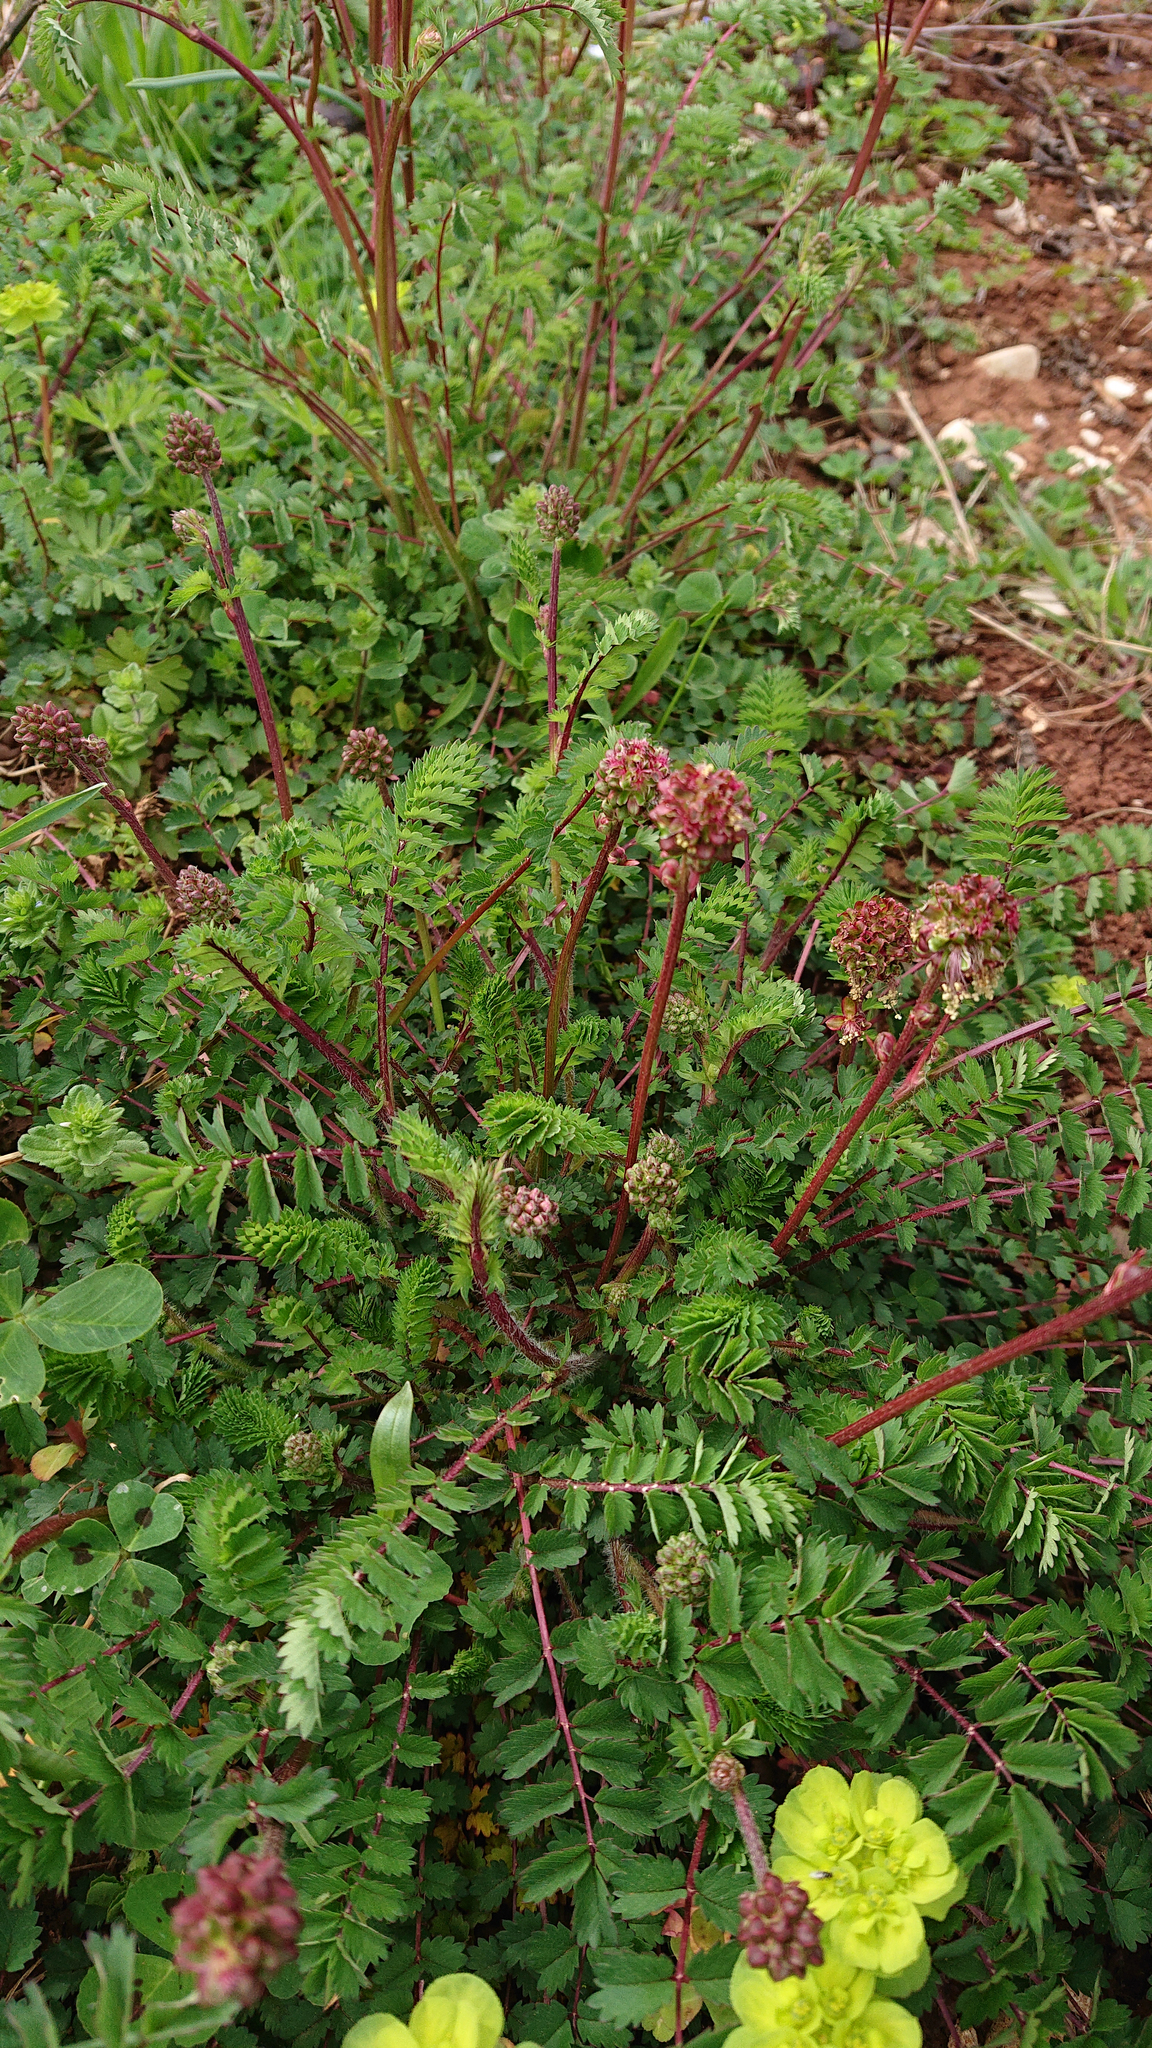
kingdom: Plantae
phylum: Tracheophyta
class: Magnoliopsida
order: Rosales
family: Rosaceae
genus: Poterium
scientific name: Poterium sanguisorba
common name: Salad burnet
